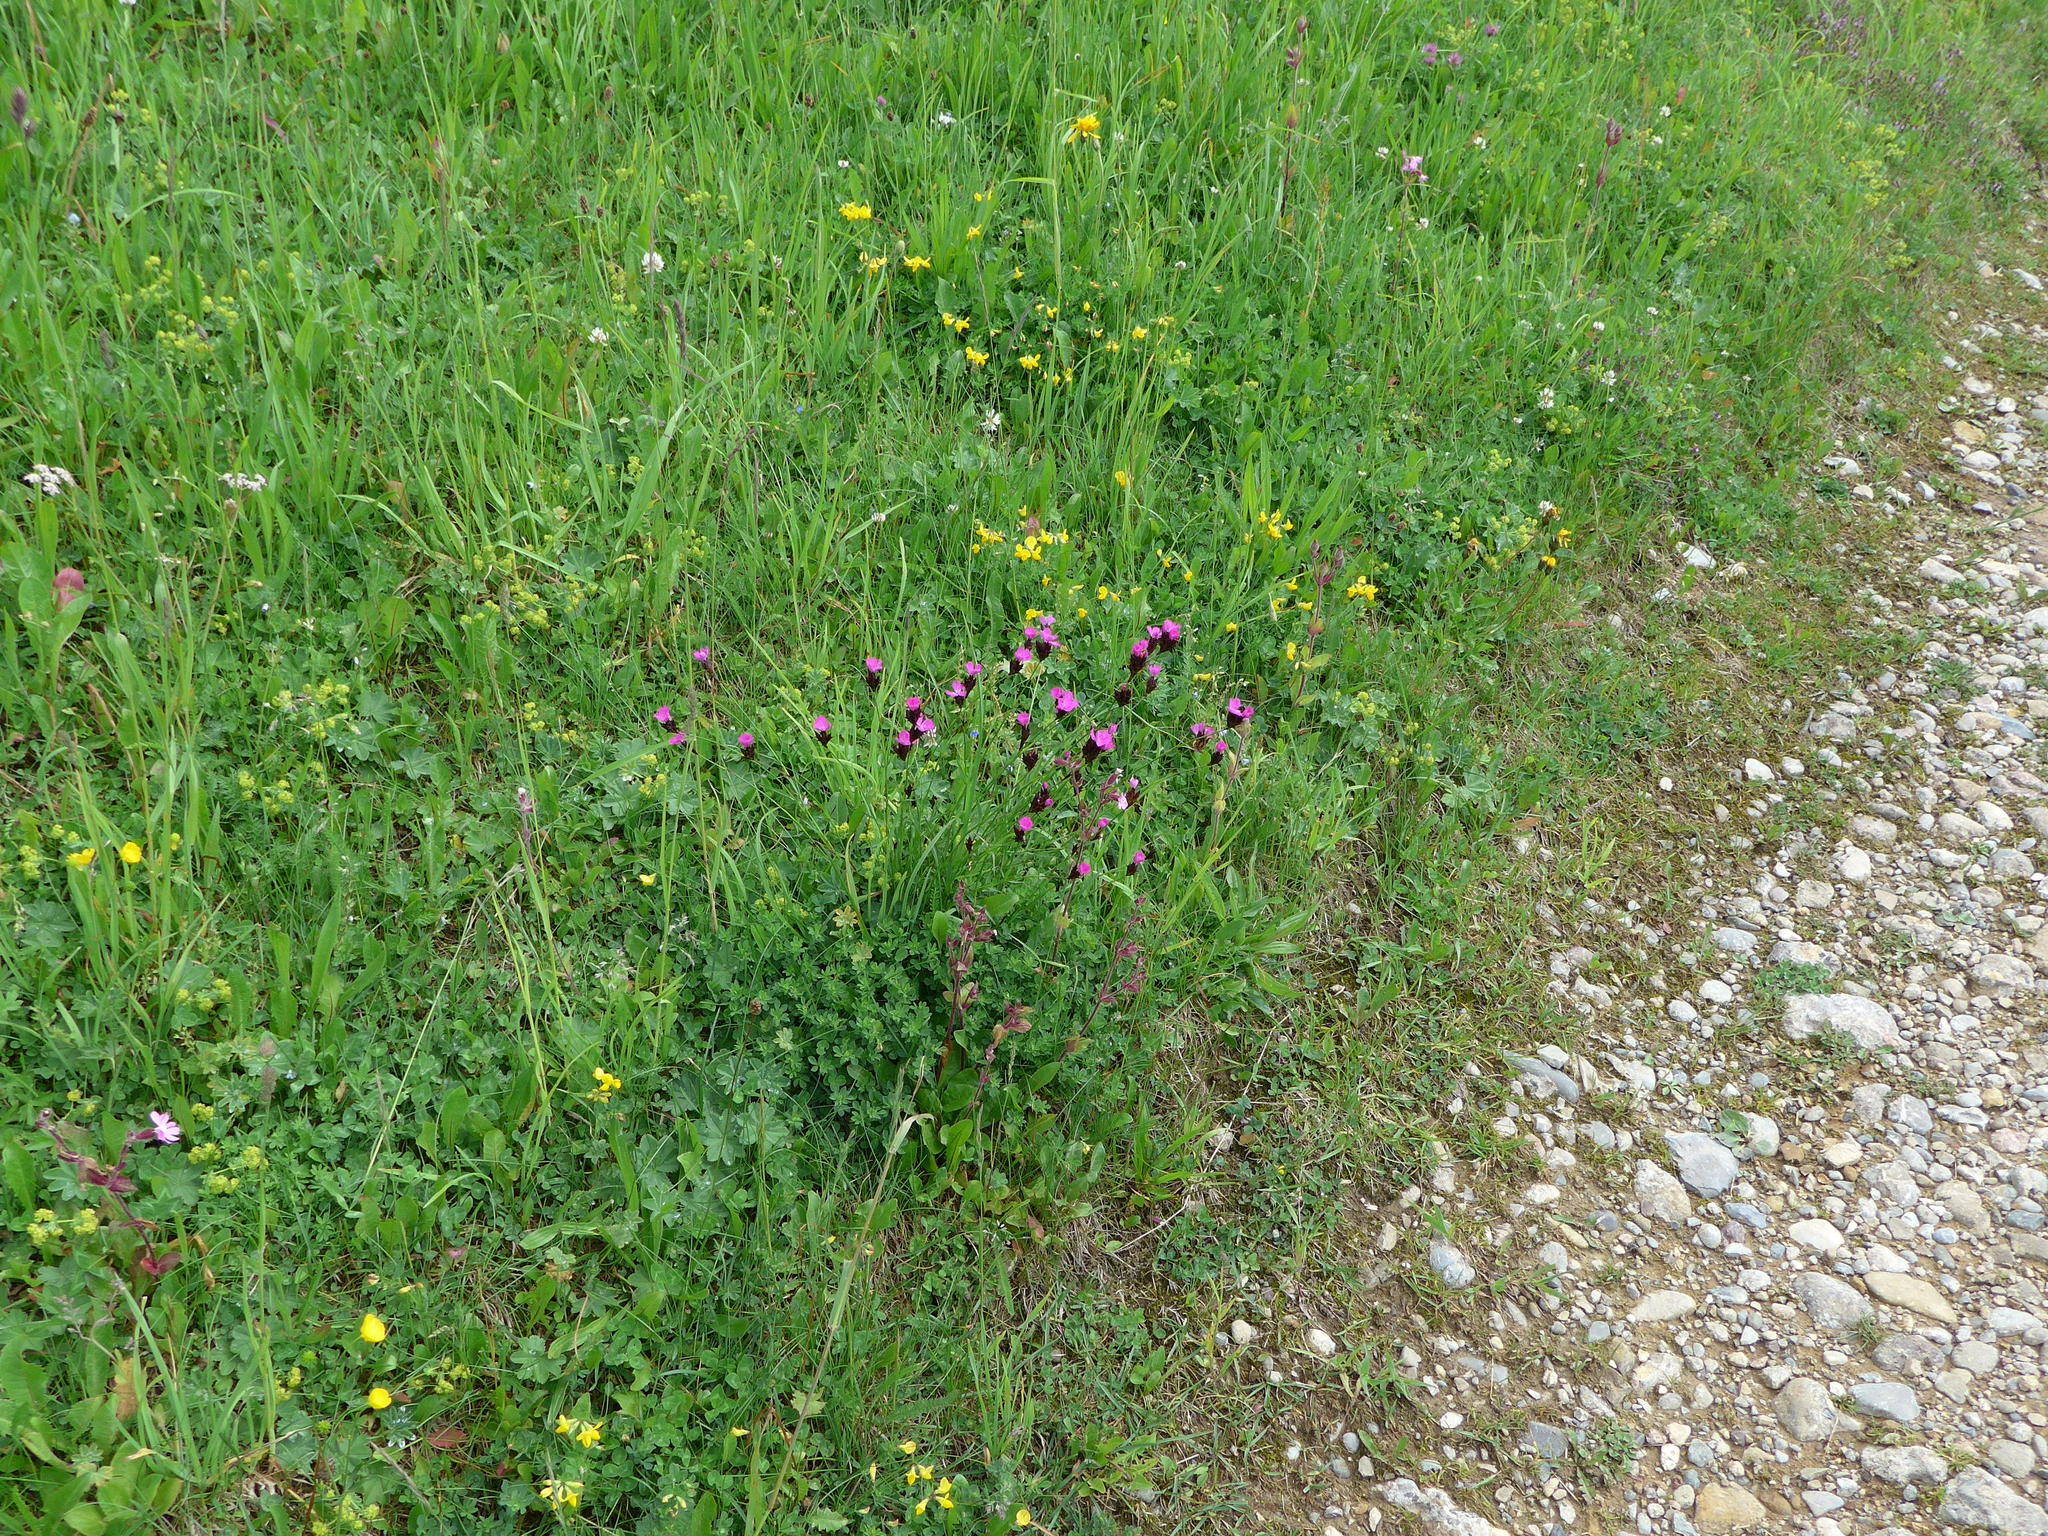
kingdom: Plantae
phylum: Tracheophyta
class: Magnoliopsida
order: Caryophyllales
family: Caryophyllaceae
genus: Dianthus
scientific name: Dianthus carthusianorum
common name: Carthusian pink
